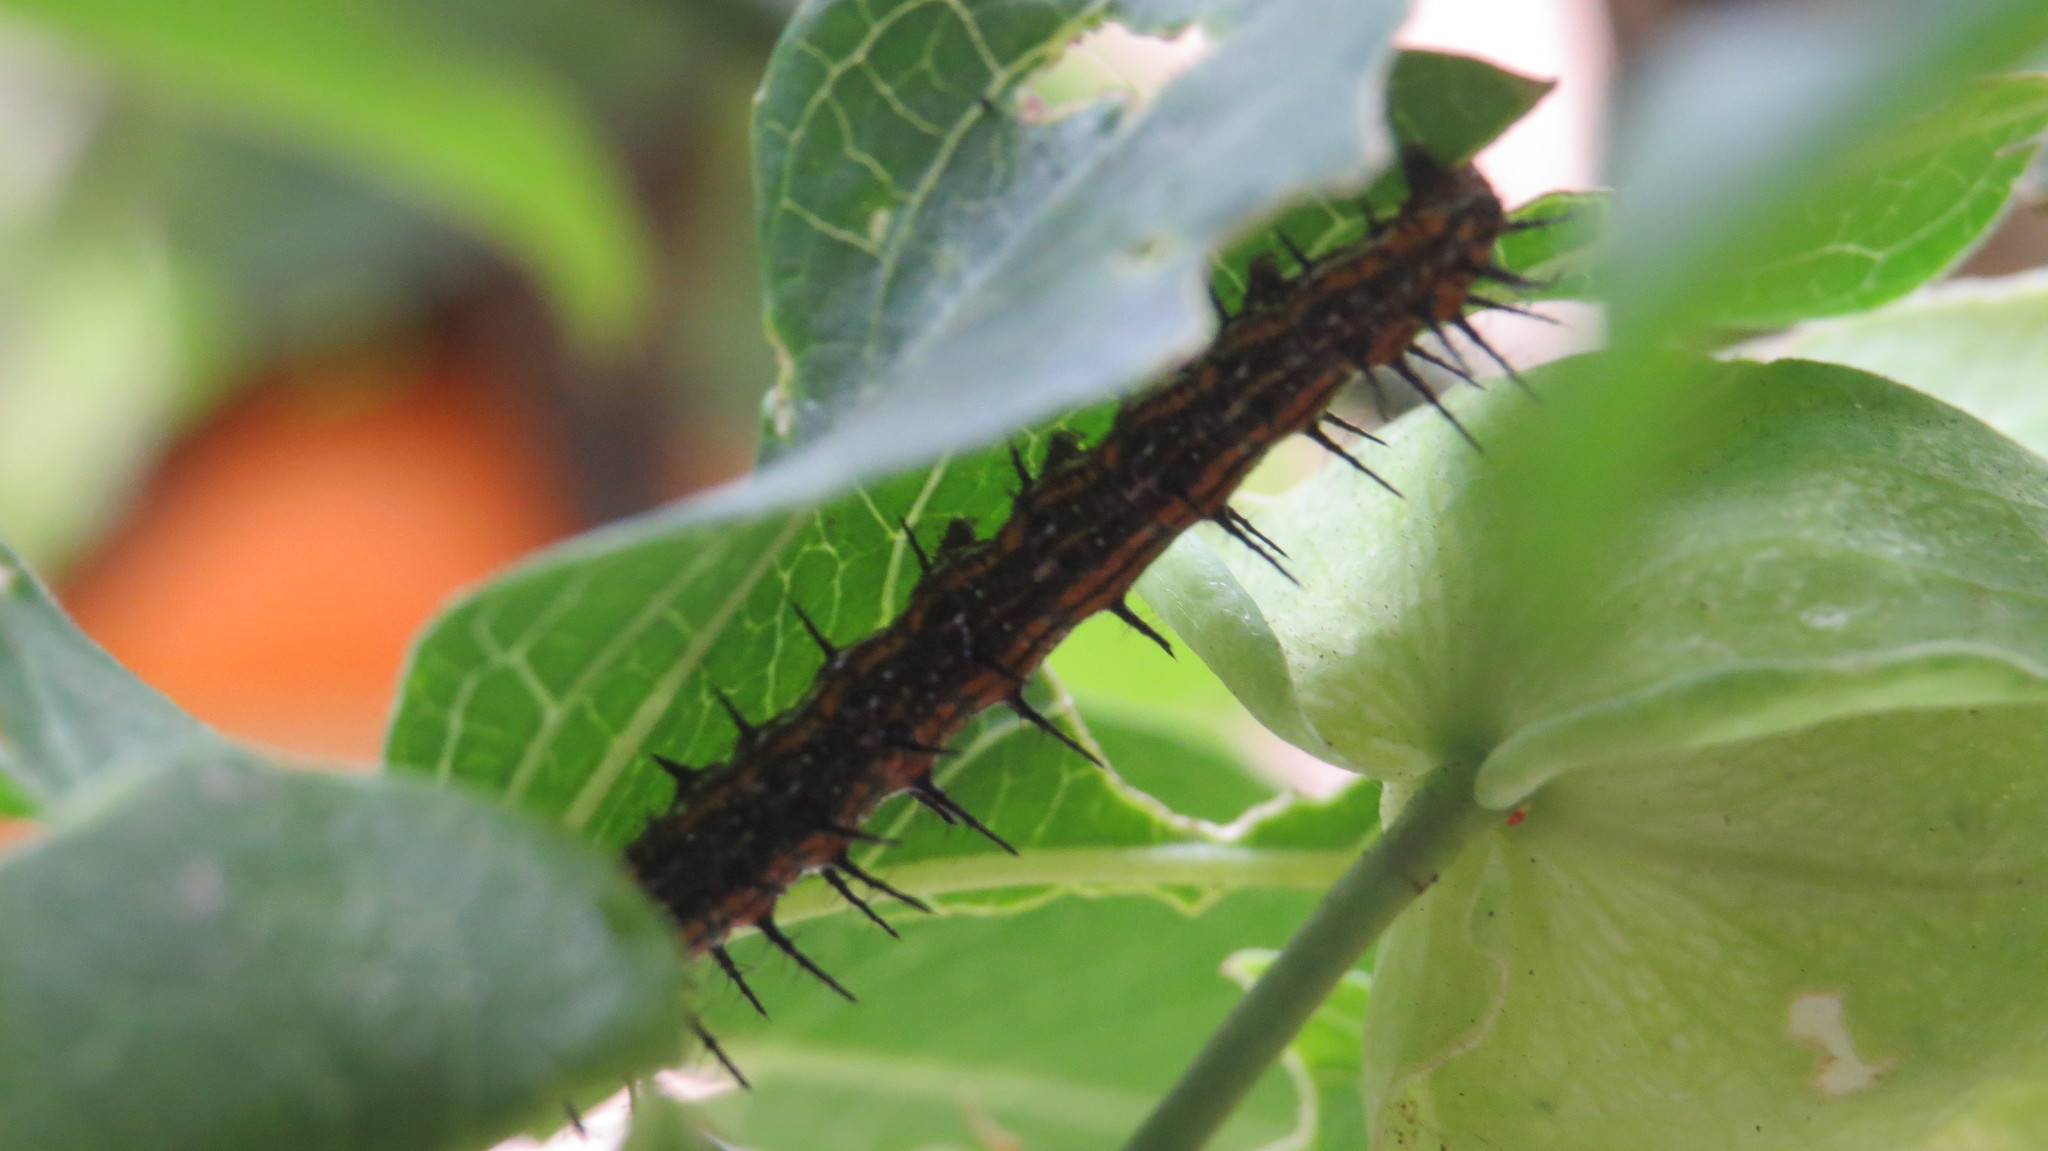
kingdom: Animalia
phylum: Arthropoda
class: Insecta
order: Lepidoptera
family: Nymphalidae
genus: Dione
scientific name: Dione vanillae
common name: Gulf fritillary
